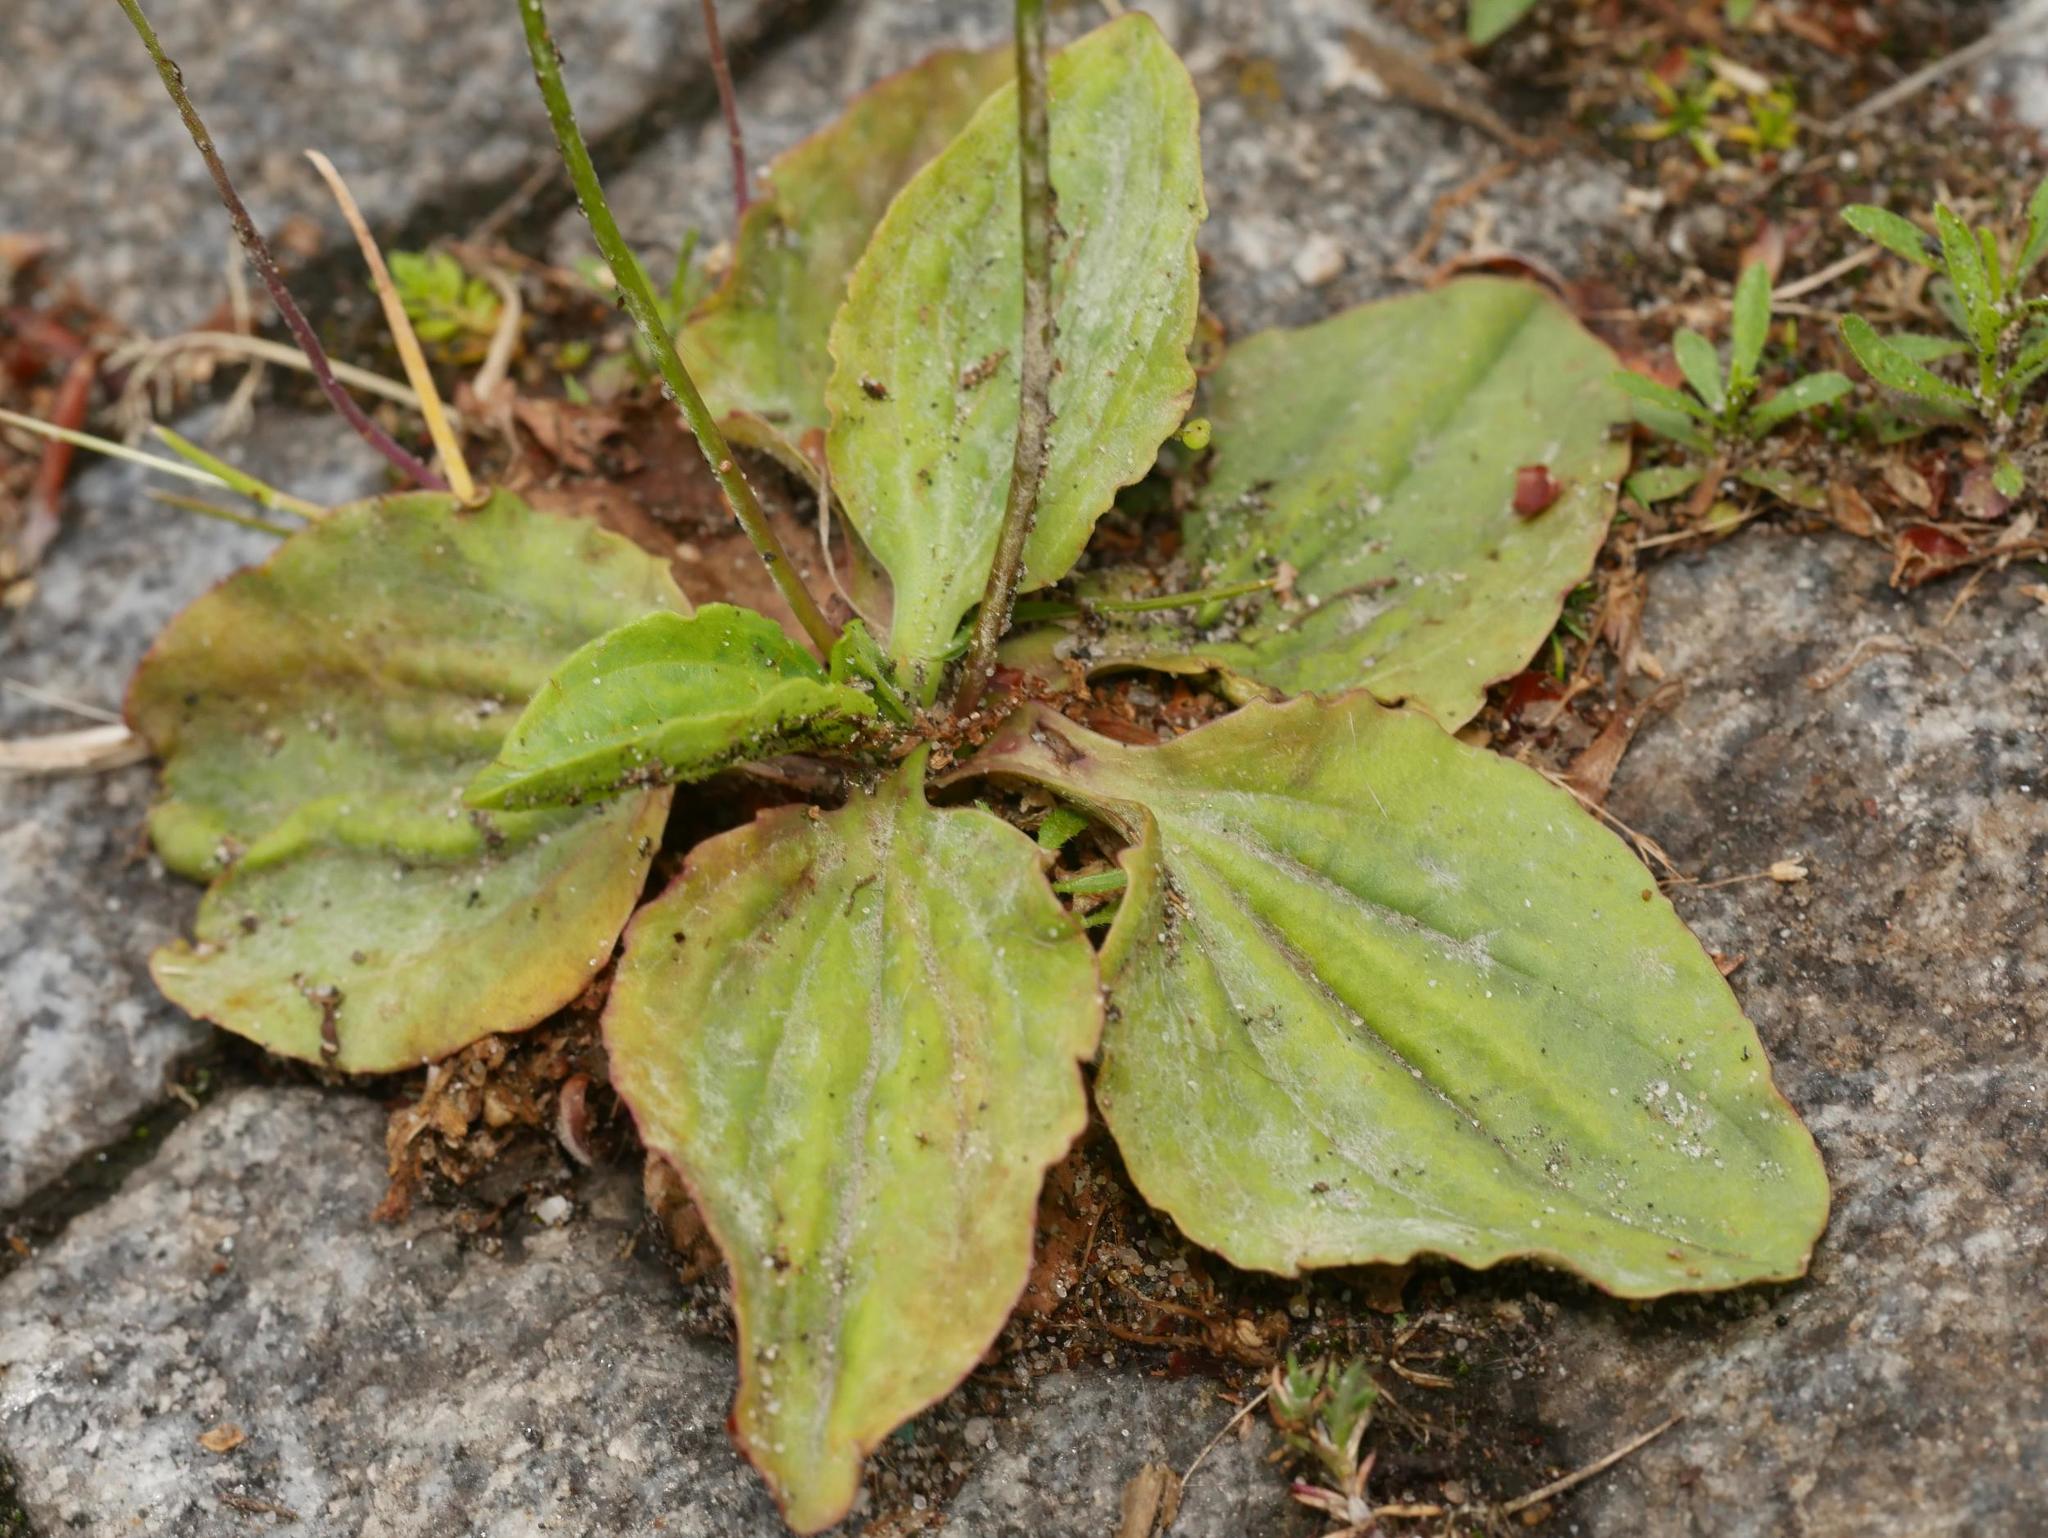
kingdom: Plantae
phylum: Tracheophyta
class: Magnoliopsida
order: Lamiales
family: Plantaginaceae
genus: Plantago
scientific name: Plantago major
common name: Common plantain
